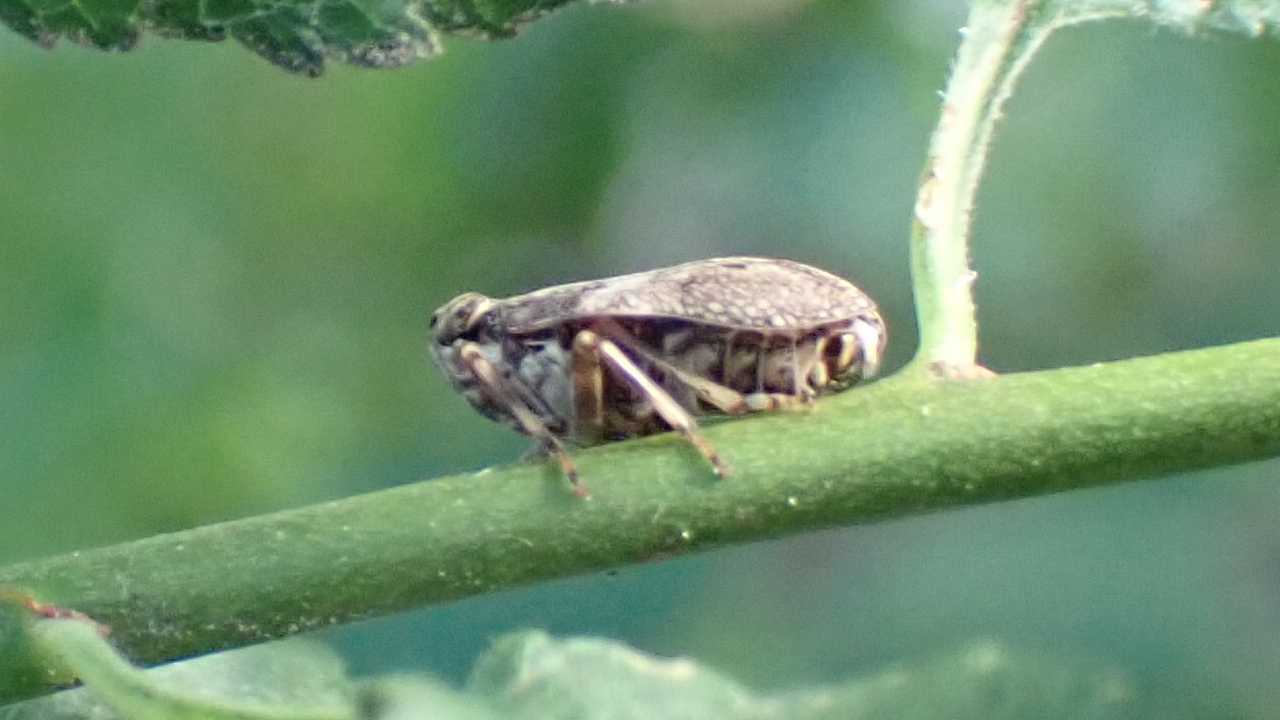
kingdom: Animalia
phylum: Arthropoda
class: Insecta
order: Hemiptera
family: Issidae
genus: Issus
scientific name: Issus coleoptratus
